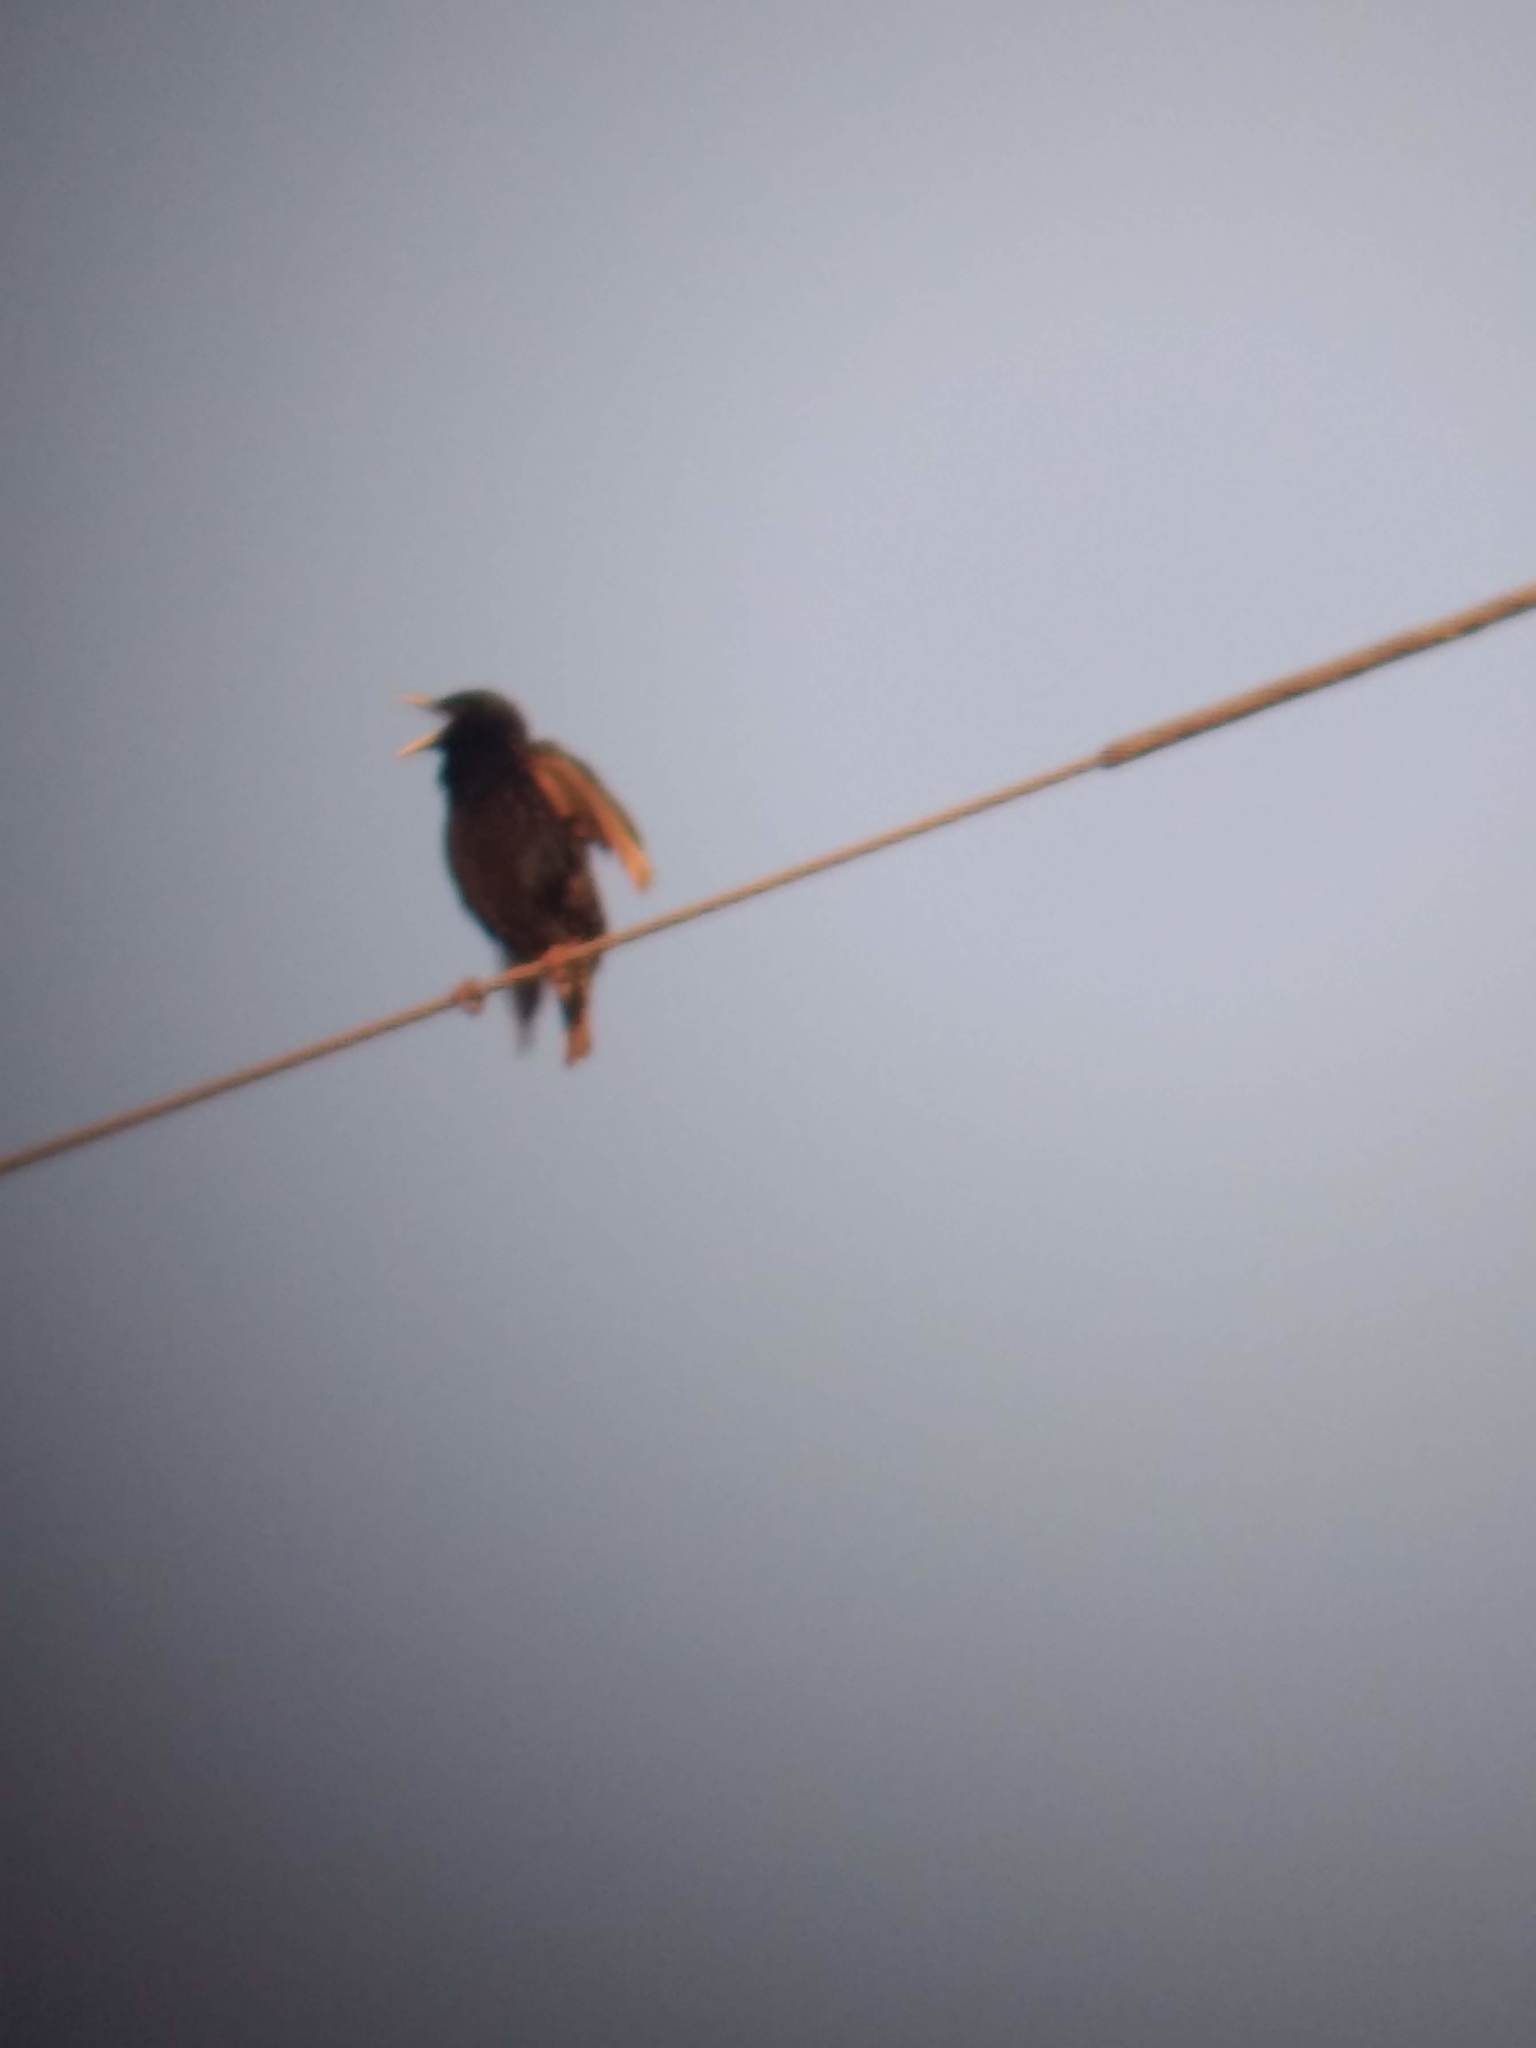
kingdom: Animalia
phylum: Chordata
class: Aves
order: Passeriformes
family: Sturnidae
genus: Sturnus
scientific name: Sturnus vulgaris
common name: Common starling
